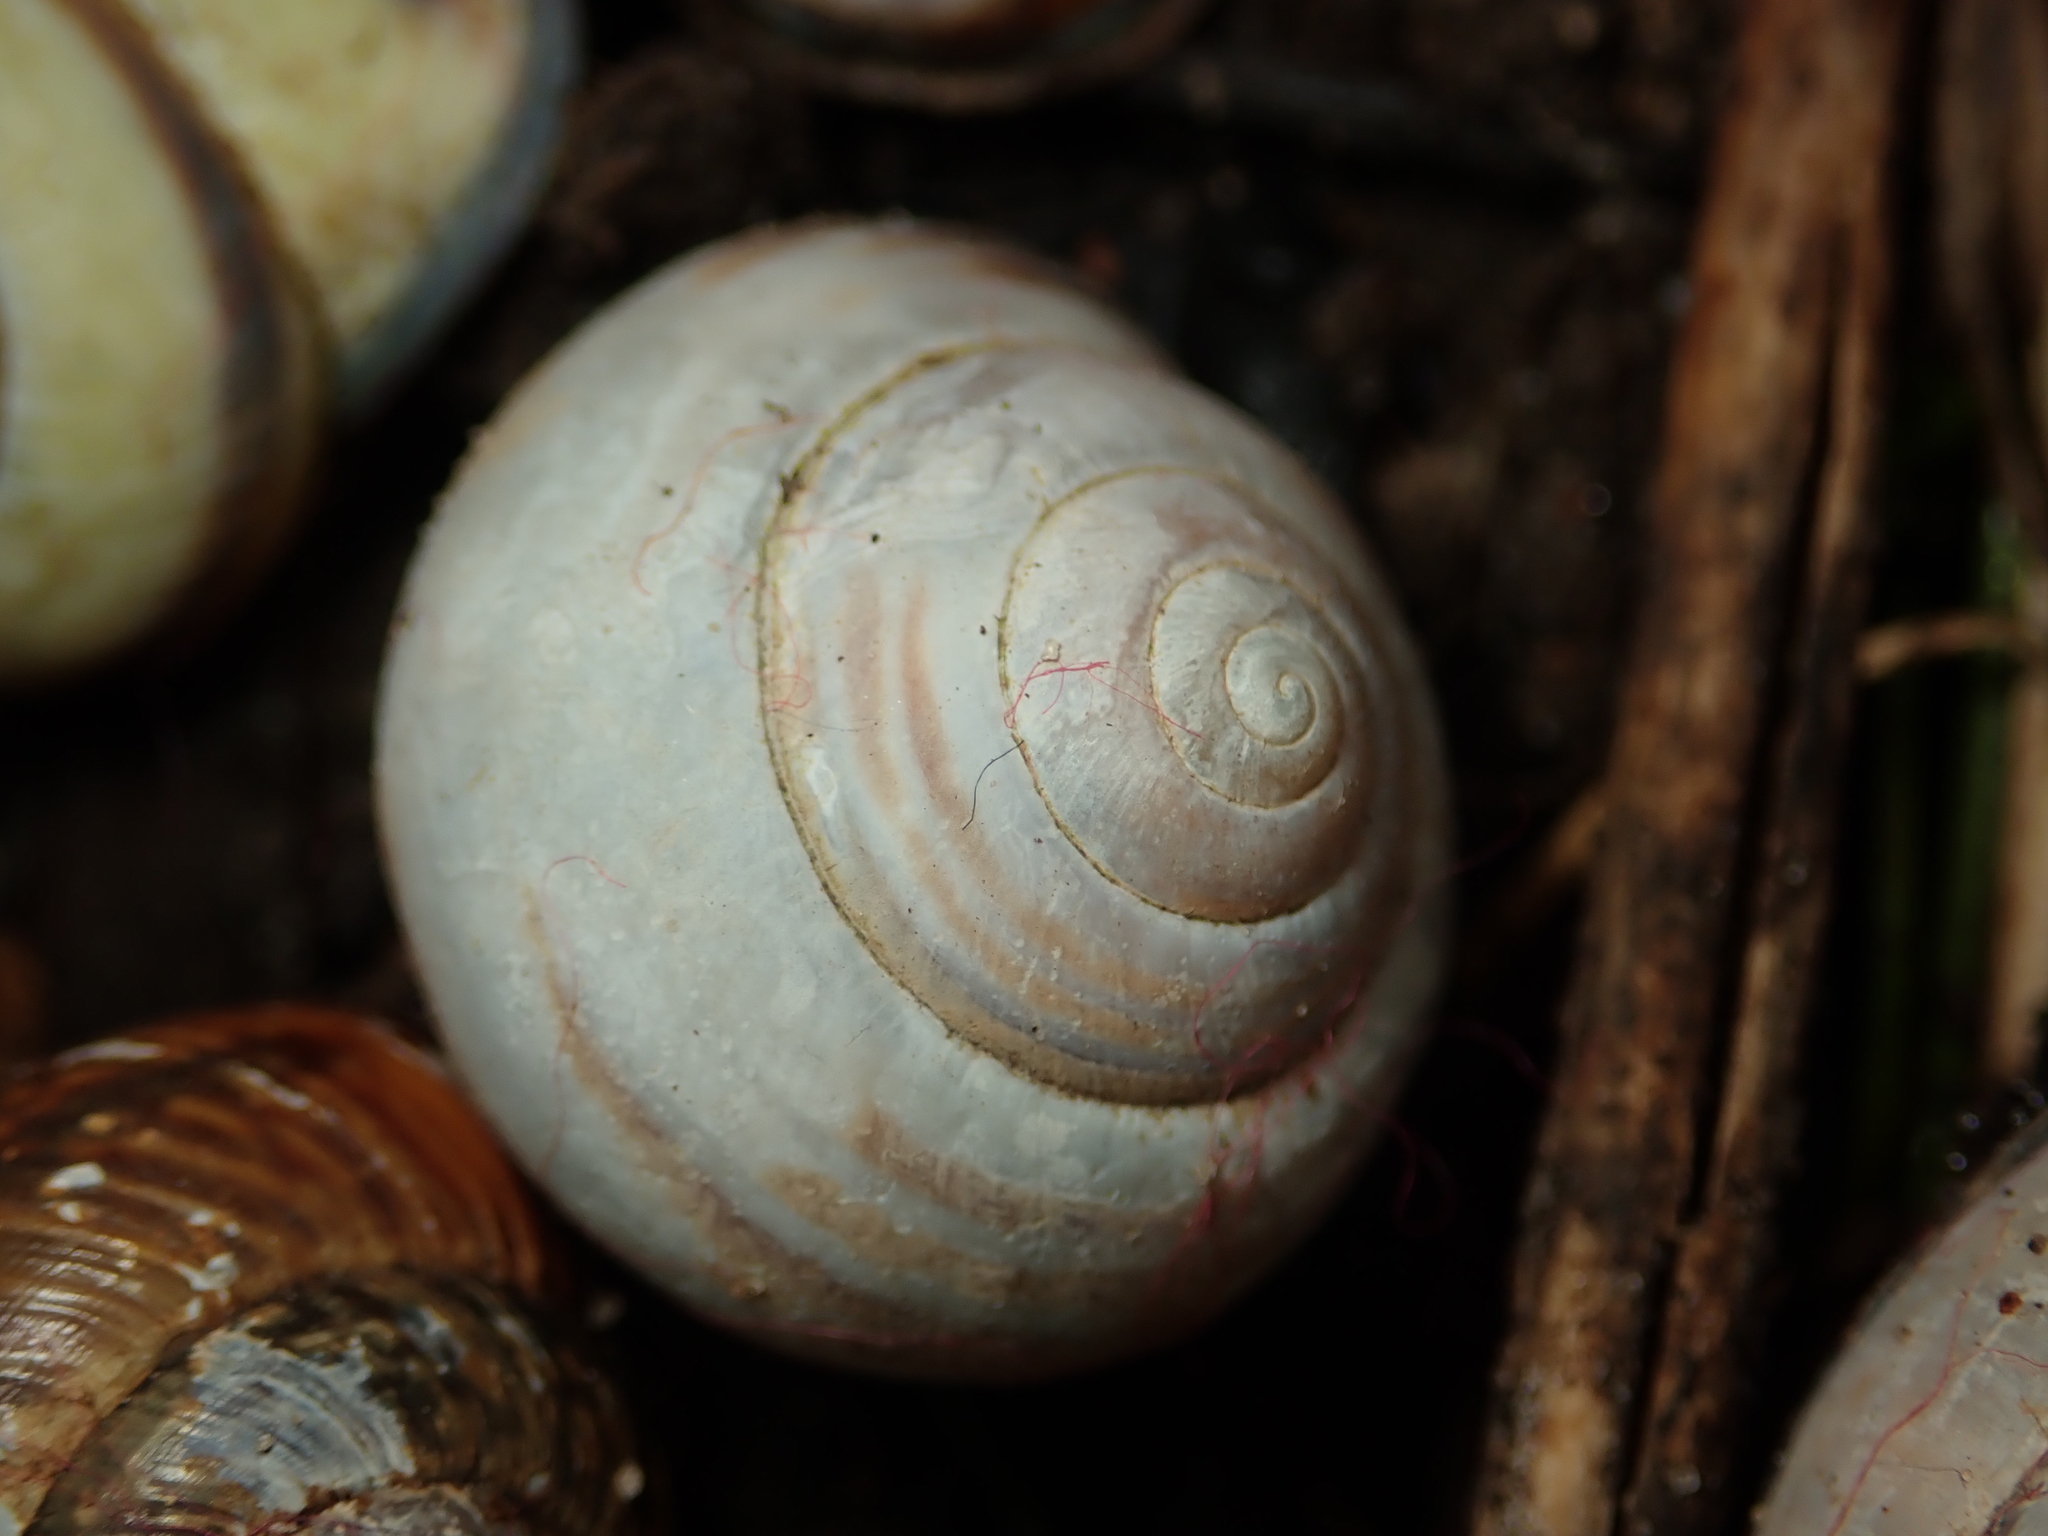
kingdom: Animalia
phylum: Mollusca
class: Gastropoda
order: Stylommatophora
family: Helicidae
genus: Cepaea
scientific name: Cepaea nemoralis
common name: Grovesnail
